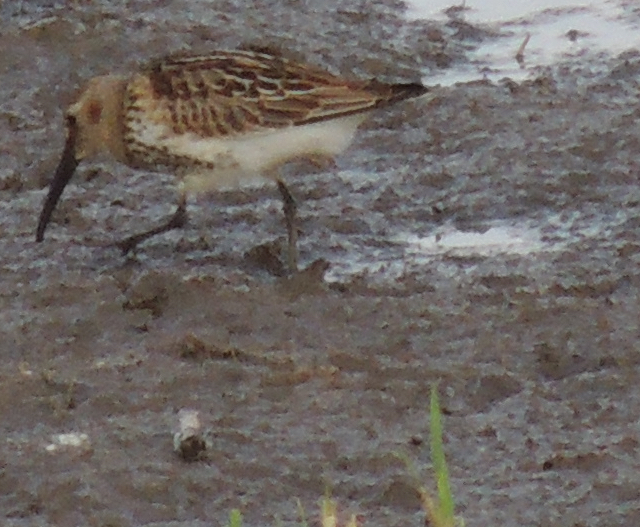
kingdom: Animalia
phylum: Chordata
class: Aves
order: Charadriiformes
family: Scolopacidae
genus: Calidris
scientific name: Calidris alpina
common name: Dunlin
